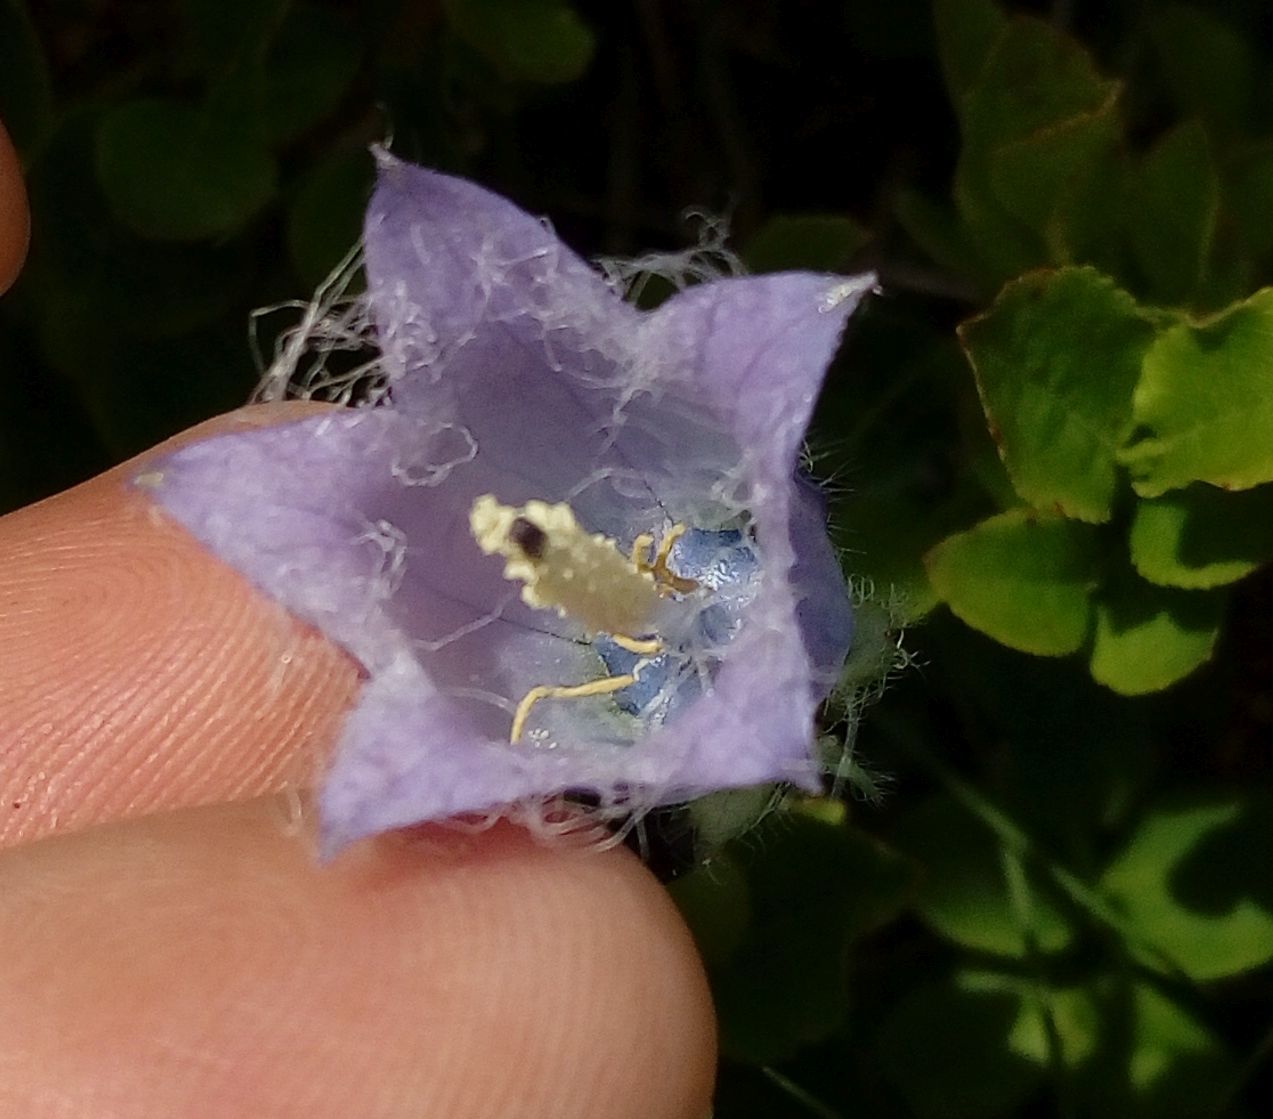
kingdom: Plantae
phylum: Tracheophyta
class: Magnoliopsida
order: Asterales
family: Campanulaceae
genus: Campanula
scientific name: Campanula barbata
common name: Bearded bellflower
